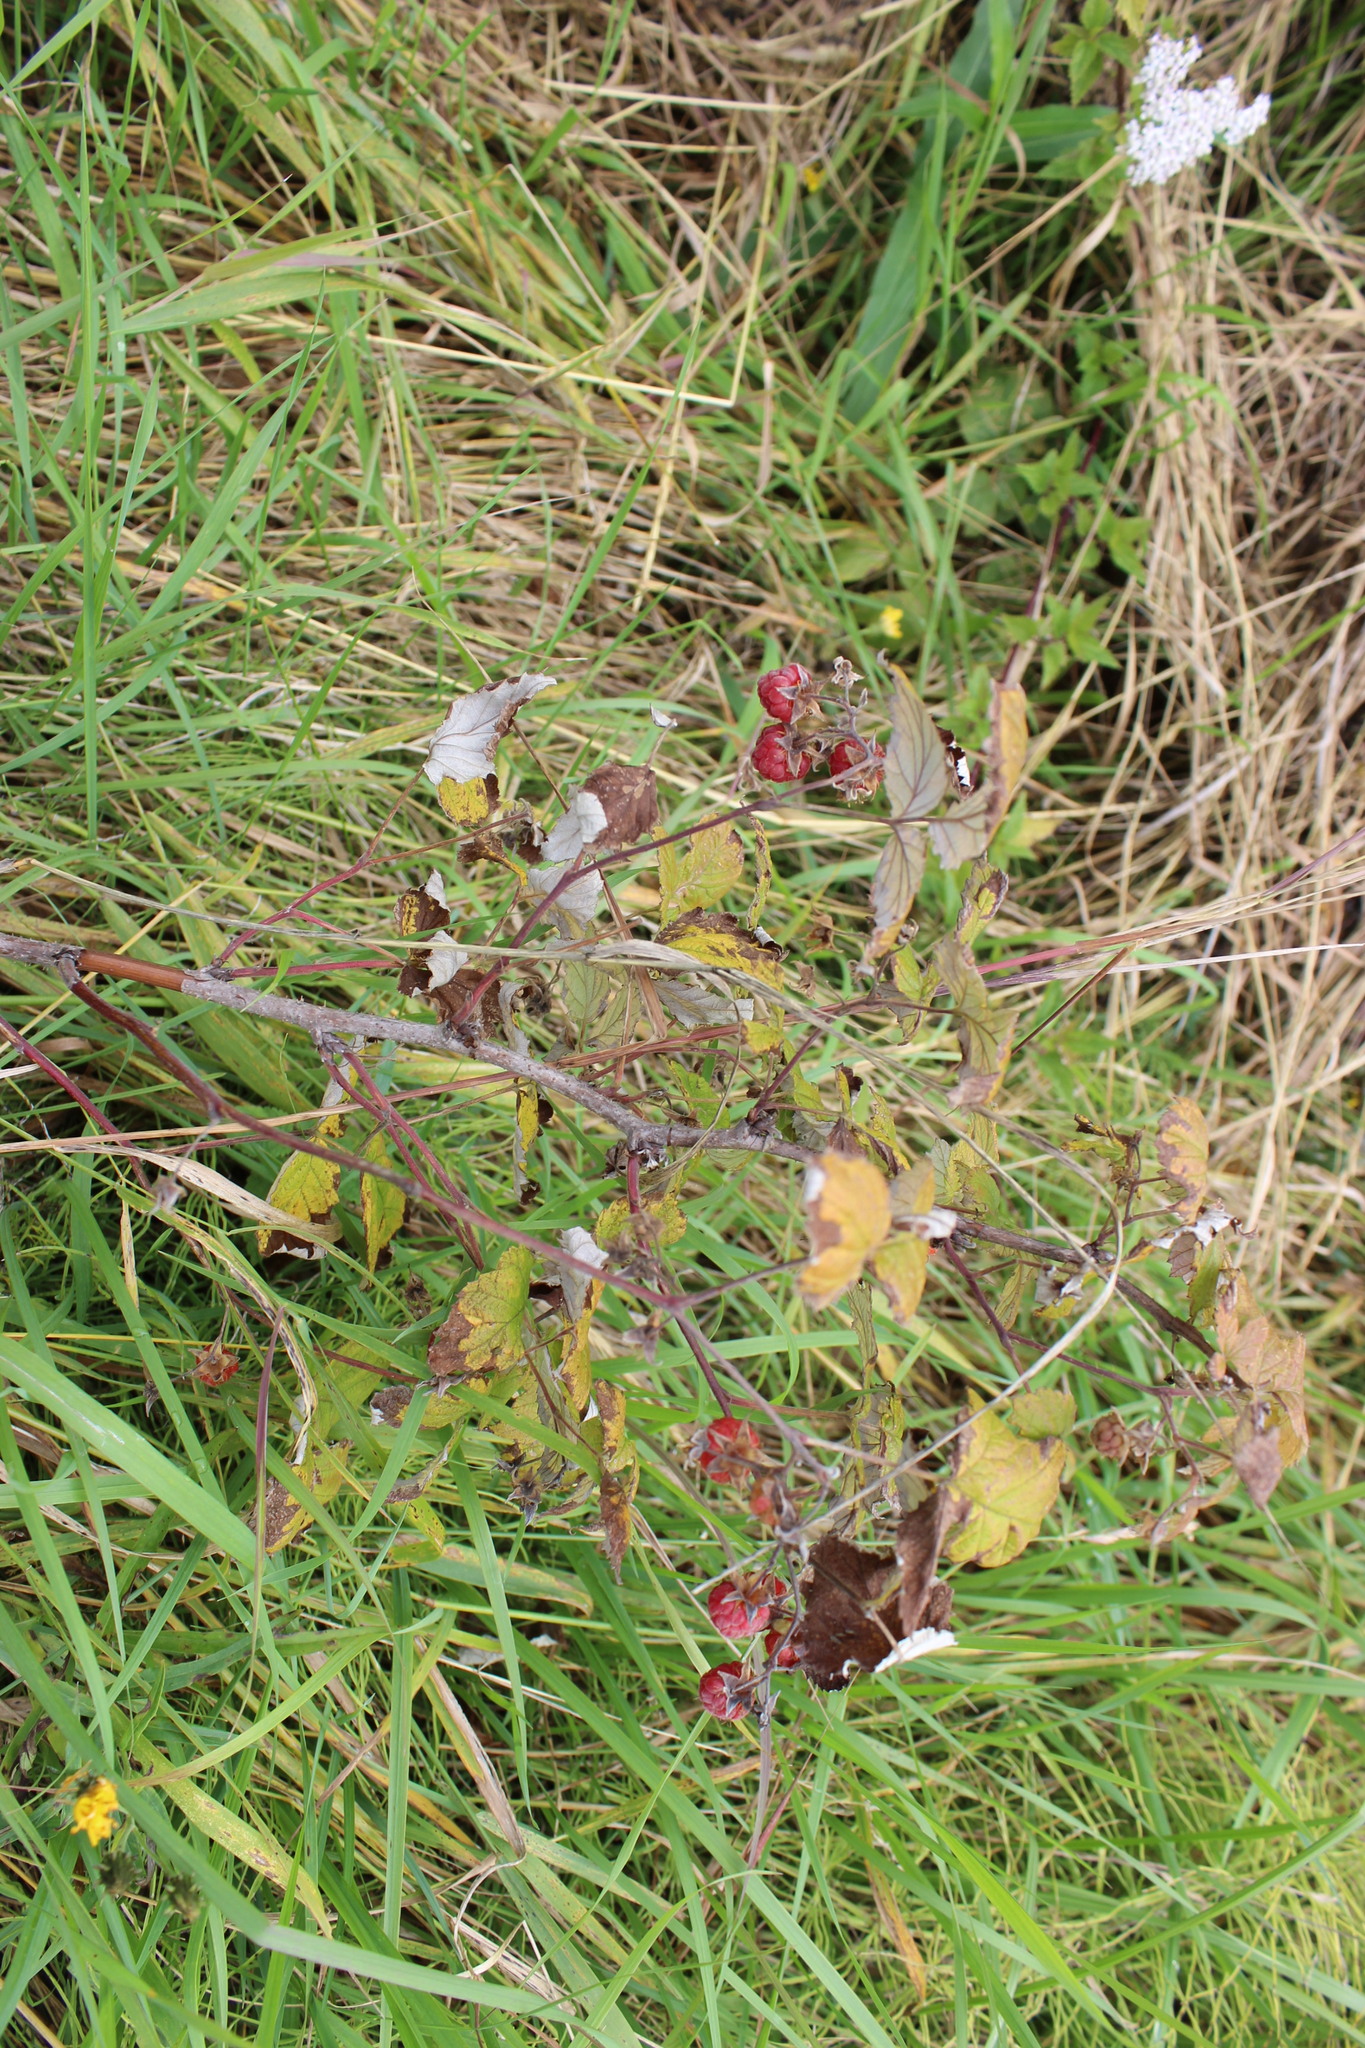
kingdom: Plantae
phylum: Tracheophyta
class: Magnoliopsida
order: Rosales
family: Rosaceae
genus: Rubus
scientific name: Rubus idaeus
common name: Raspberry
